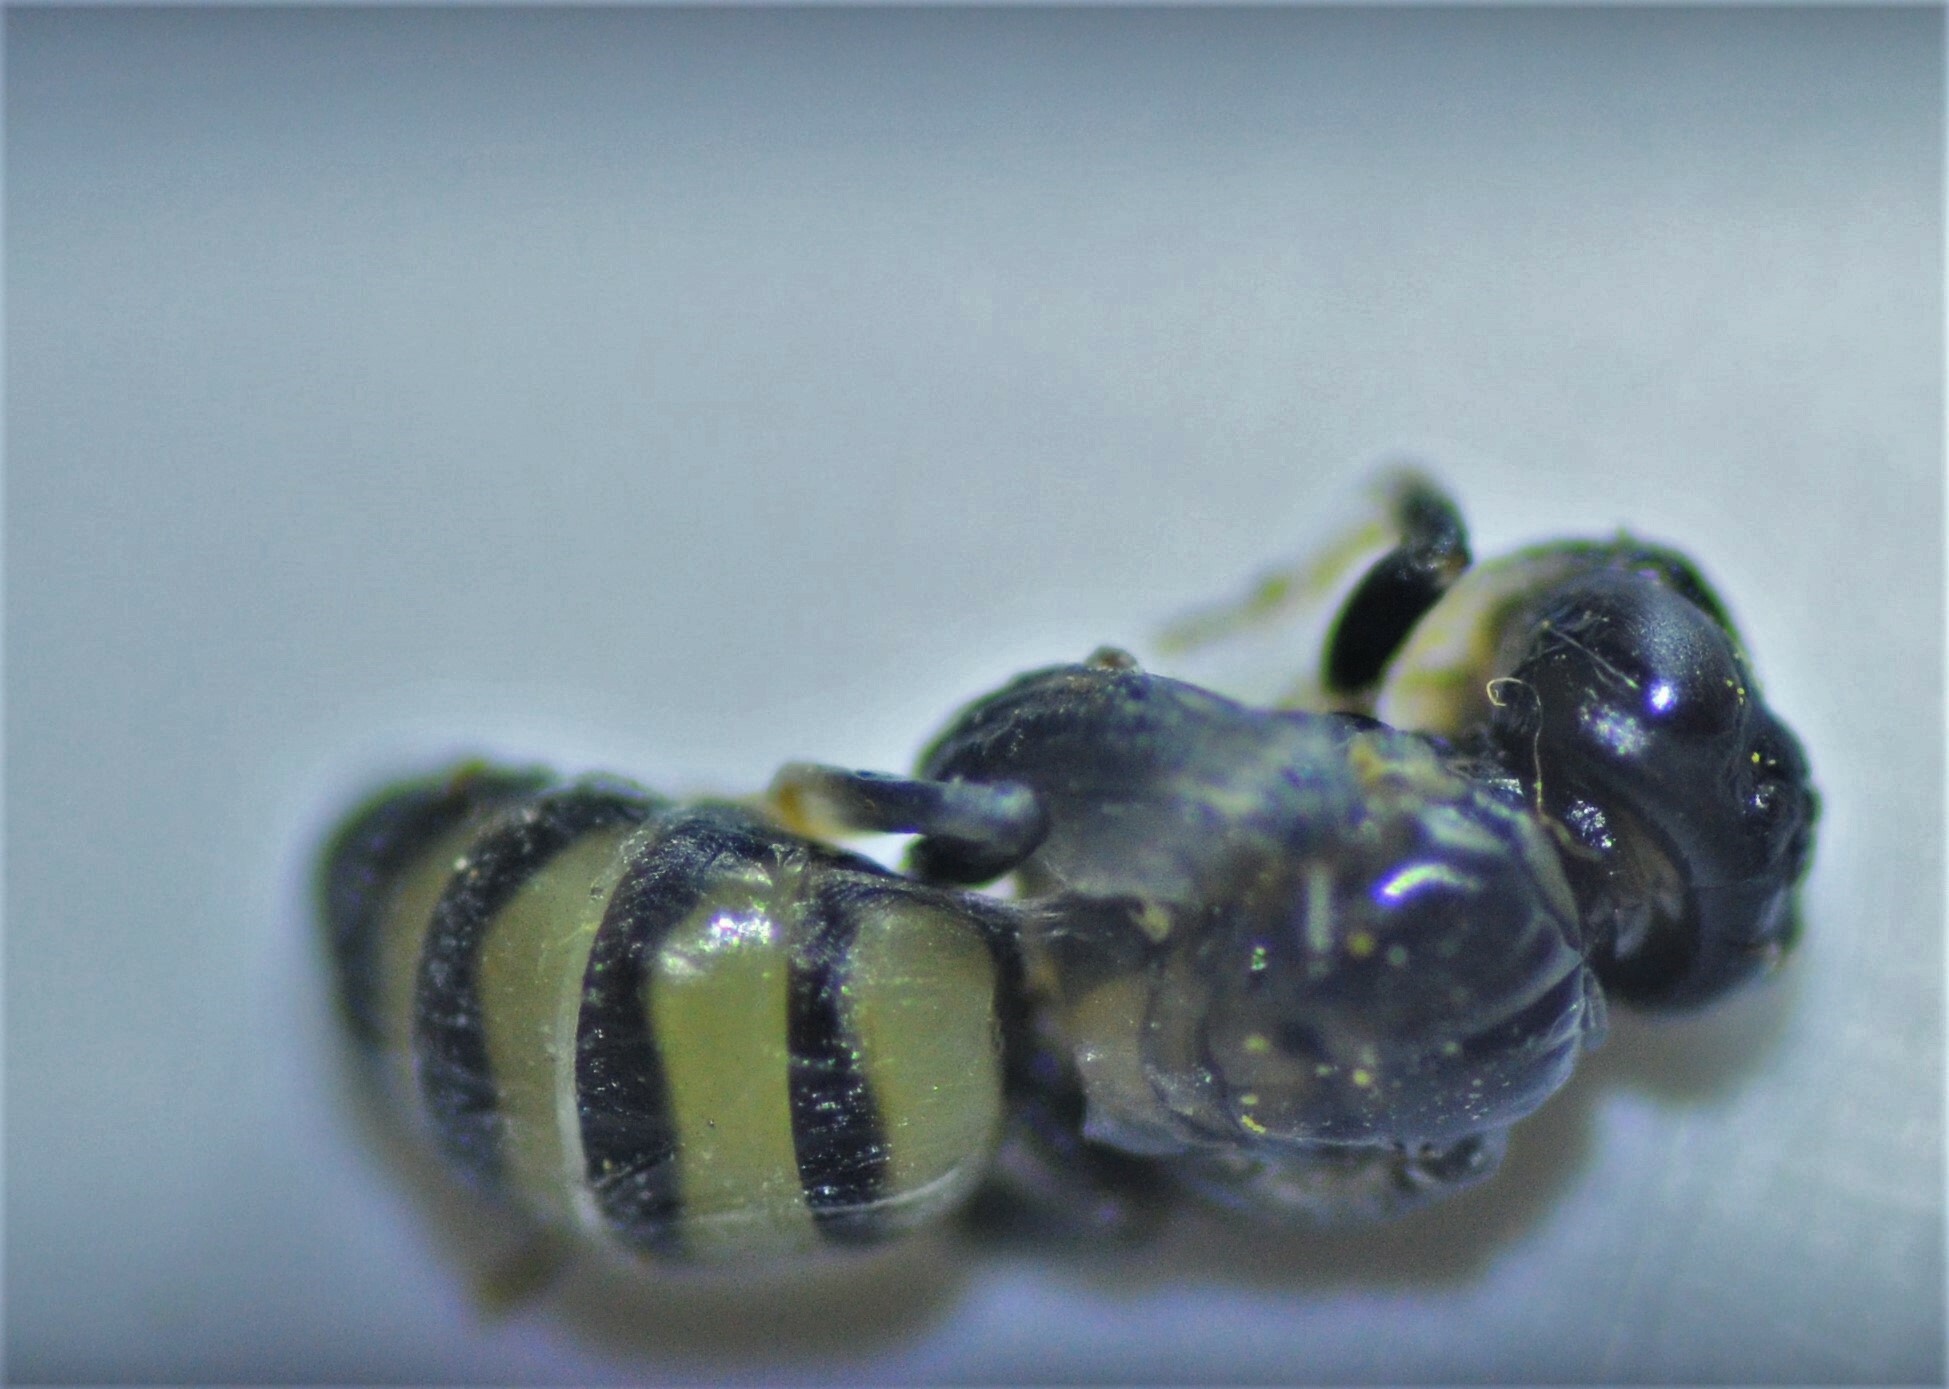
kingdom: Animalia
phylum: Arthropoda
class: Insecta
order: Hymenoptera
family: Colletidae
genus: Hylaeus
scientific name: Hylaeus relegatus
